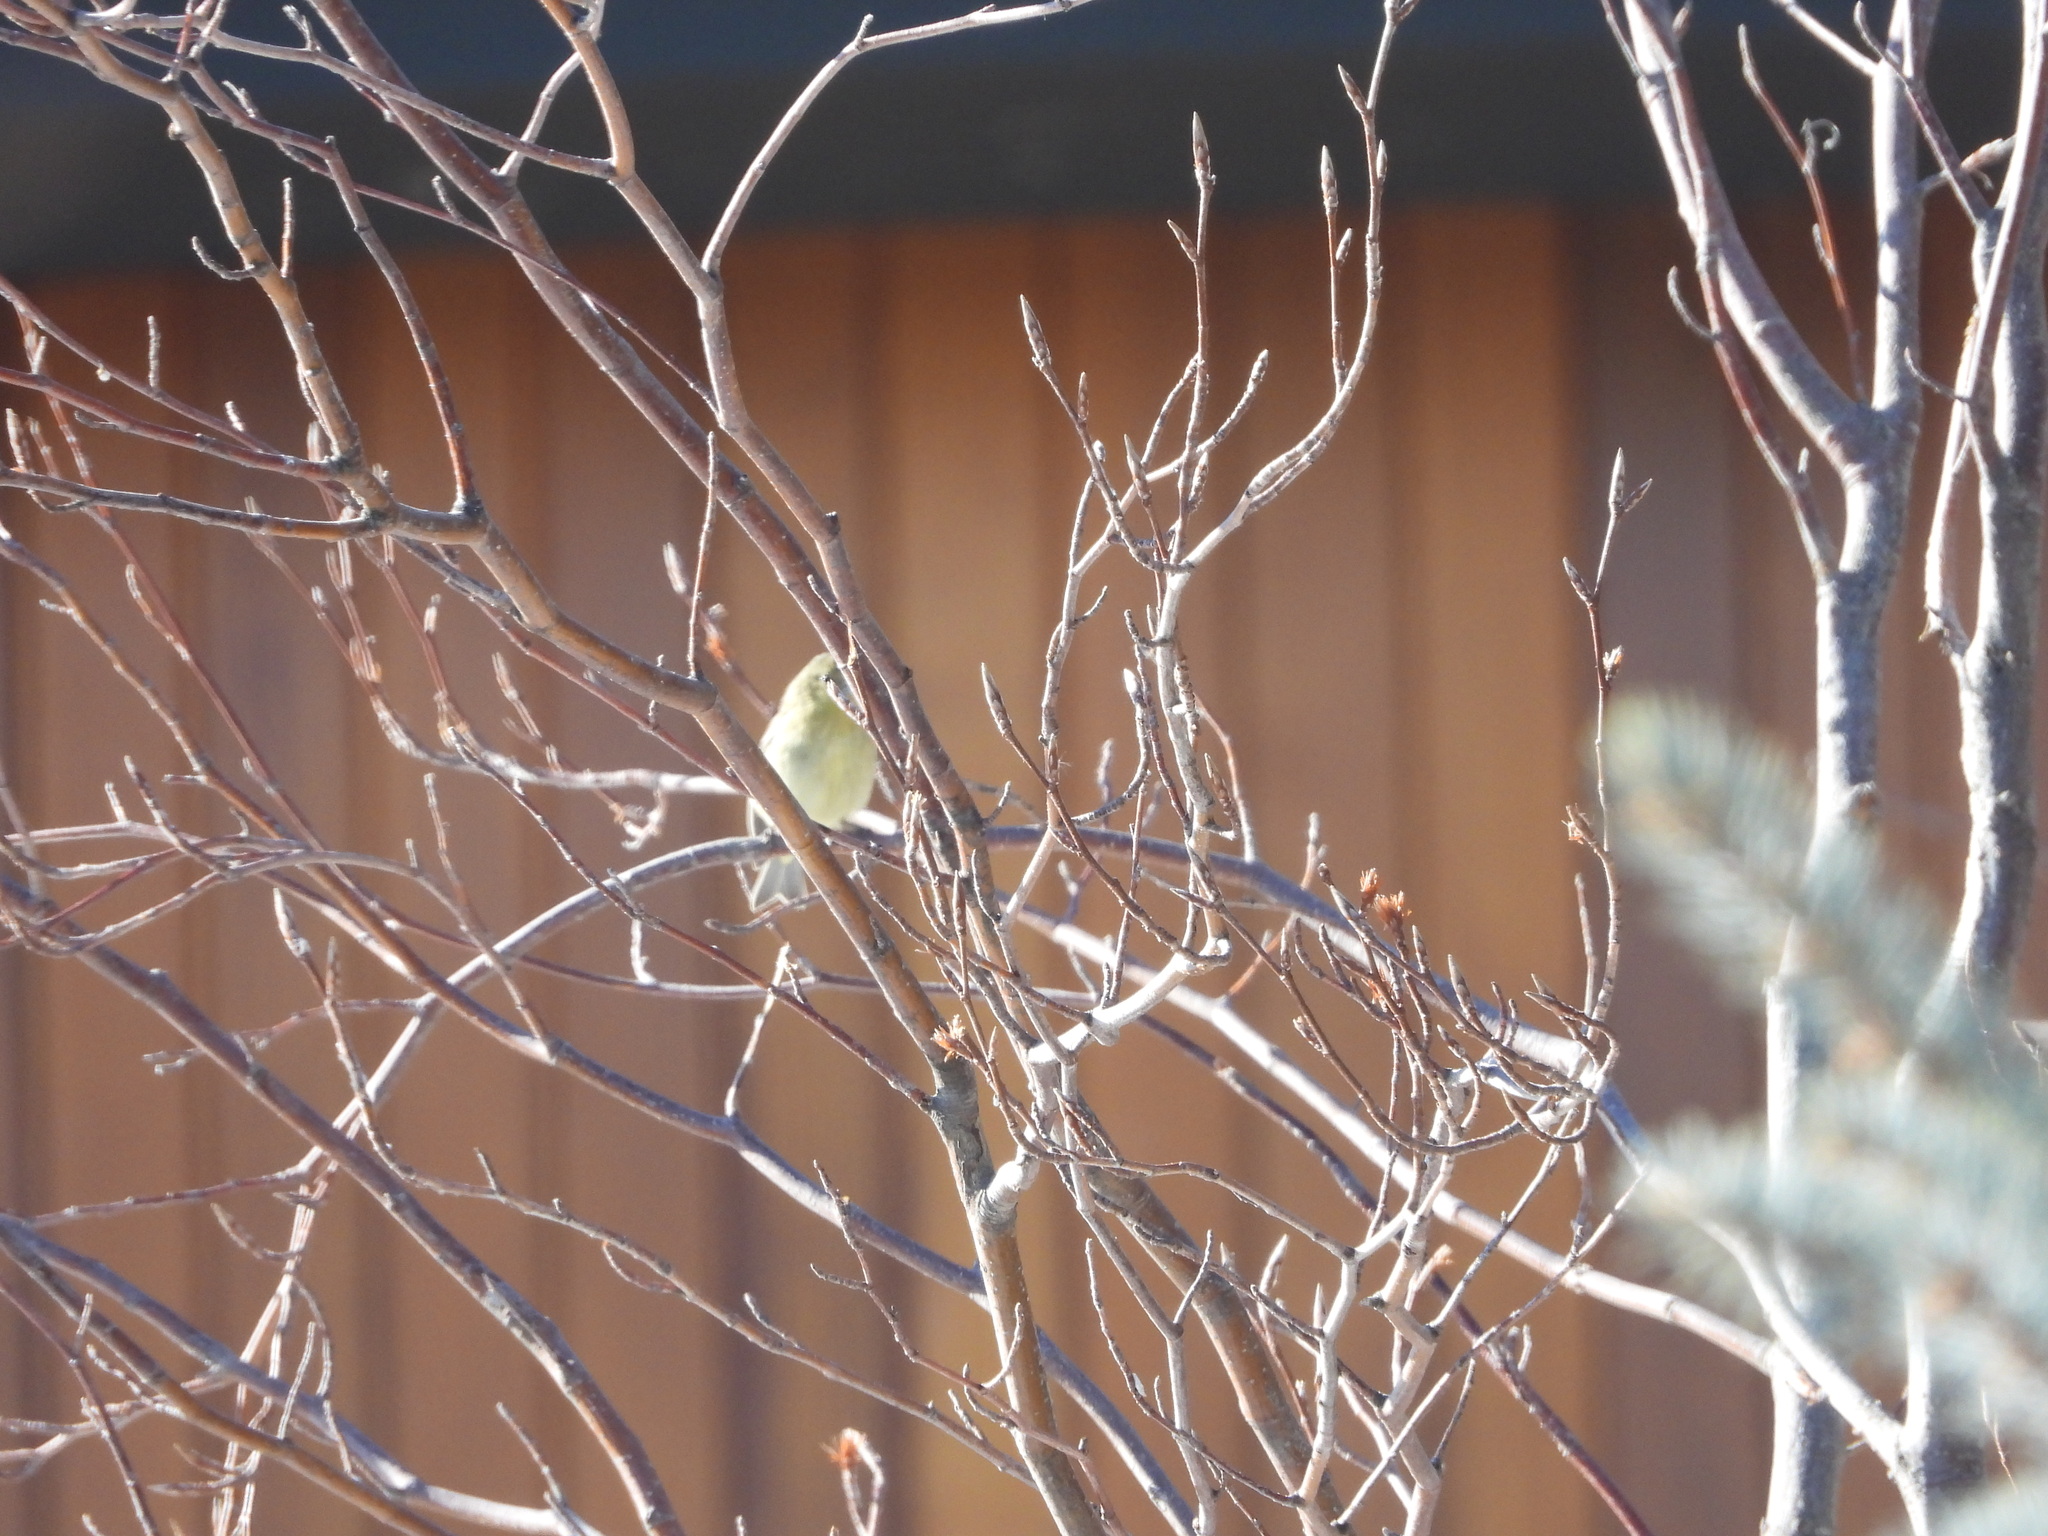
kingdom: Animalia
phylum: Chordata
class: Aves
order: Passeriformes
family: Fringillidae
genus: Spinus
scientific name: Spinus psaltria
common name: Lesser goldfinch
